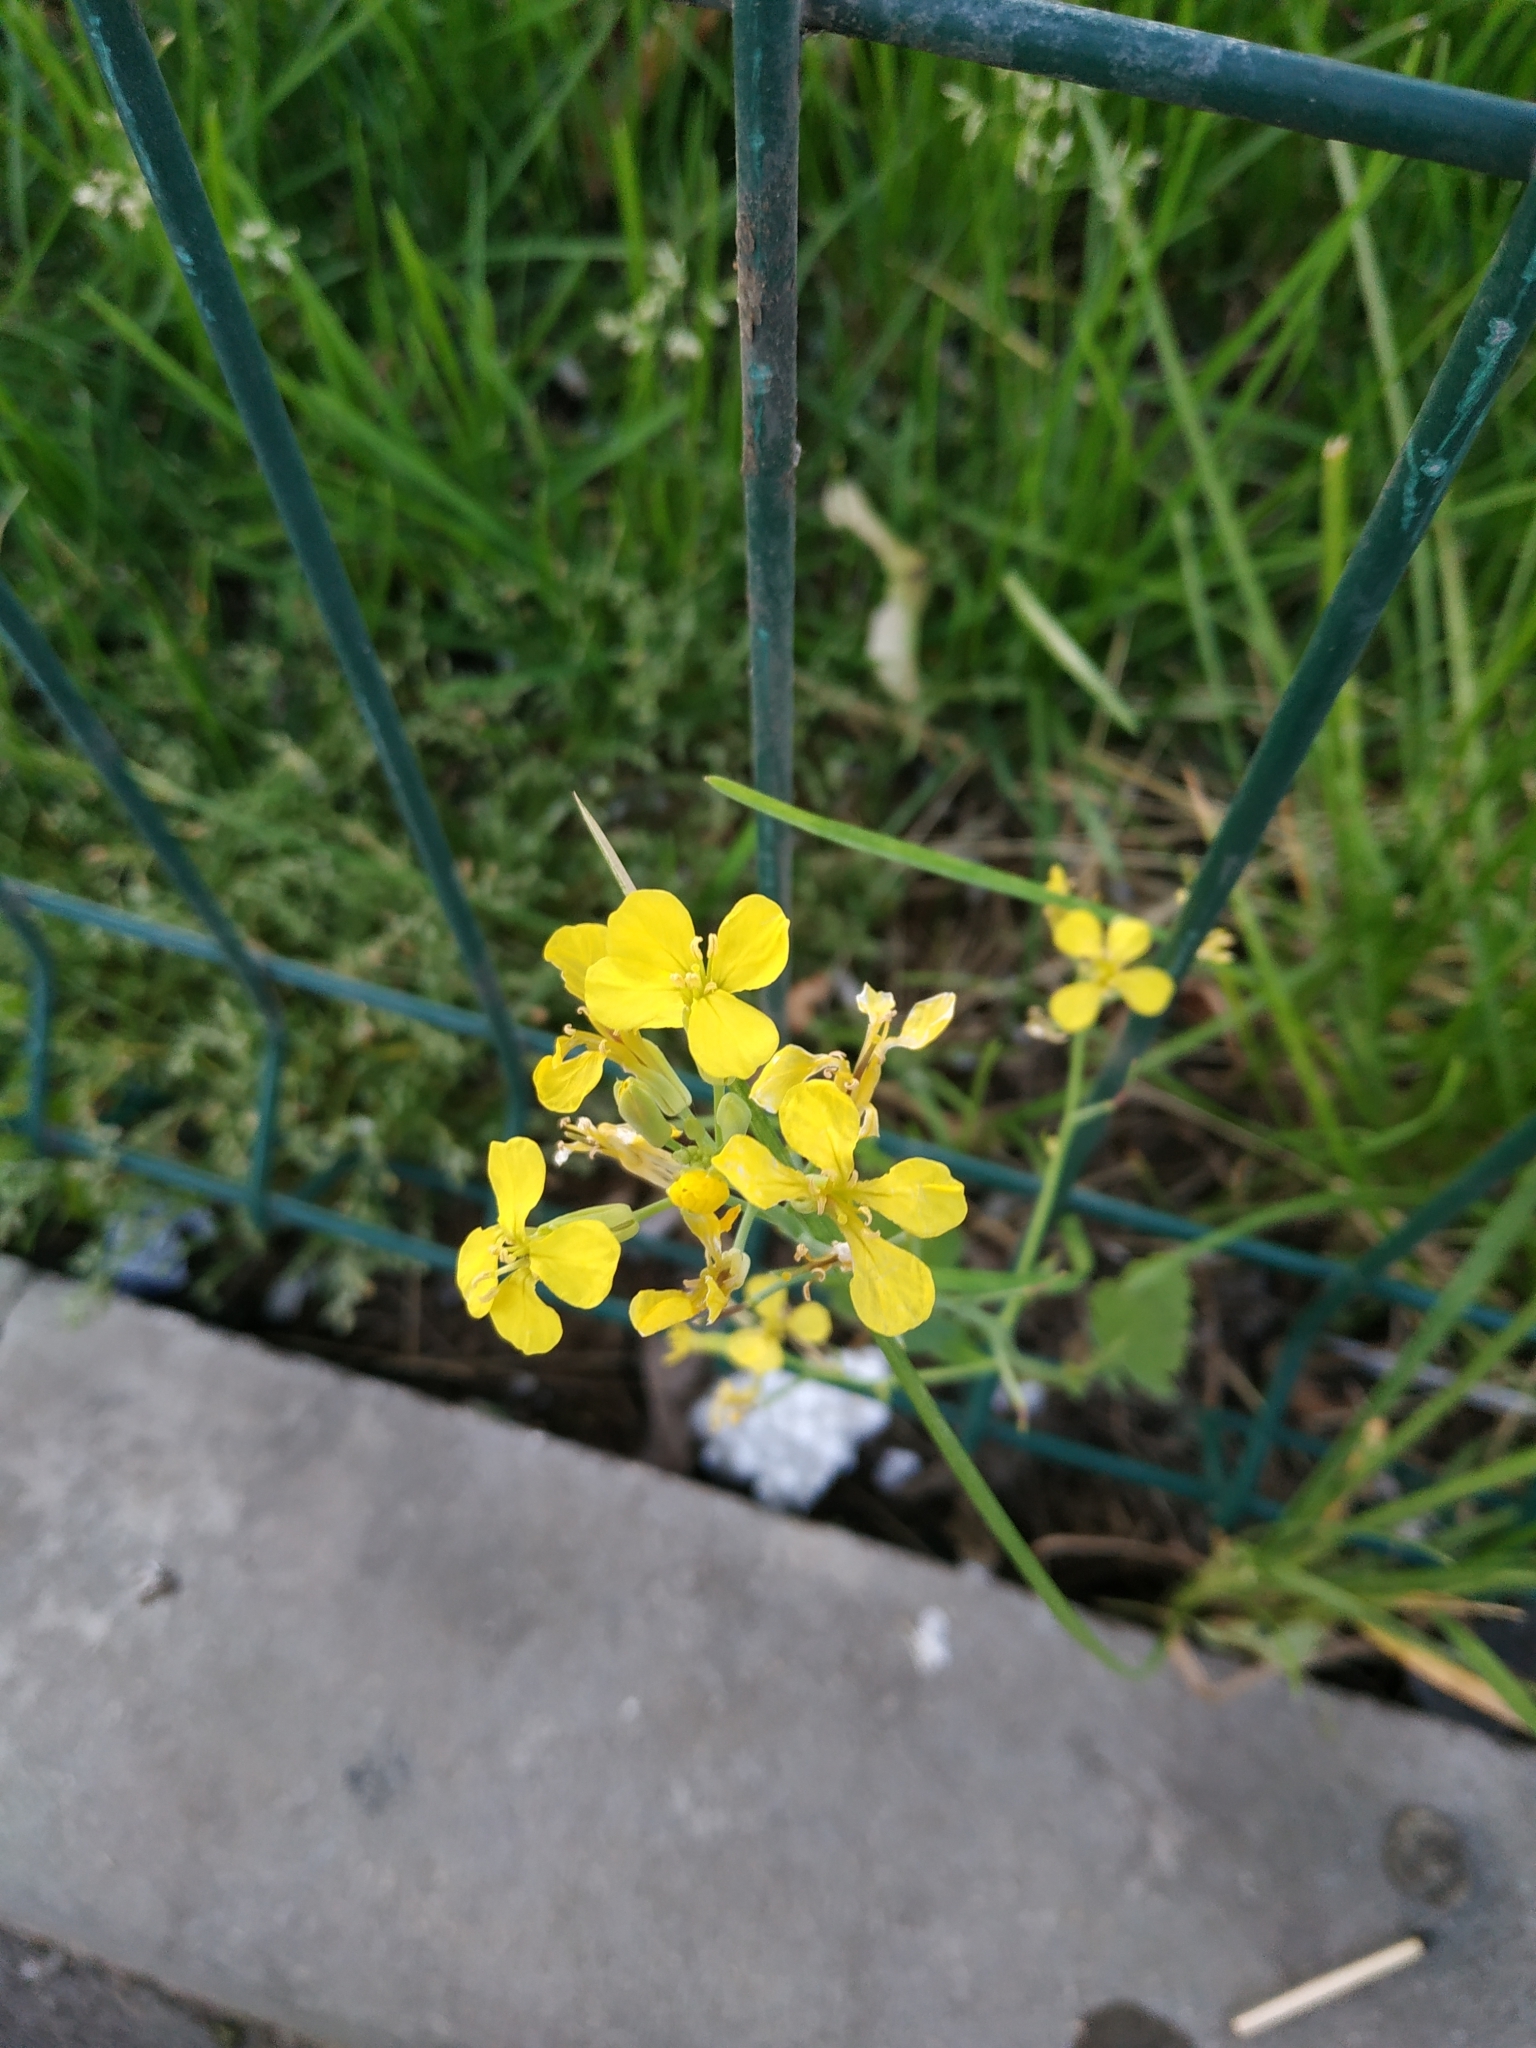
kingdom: Plantae
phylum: Tracheophyta
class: Magnoliopsida
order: Brassicales
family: Brassicaceae
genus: Raphanus
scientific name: Raphanus raphanistrum
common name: Wild radish
